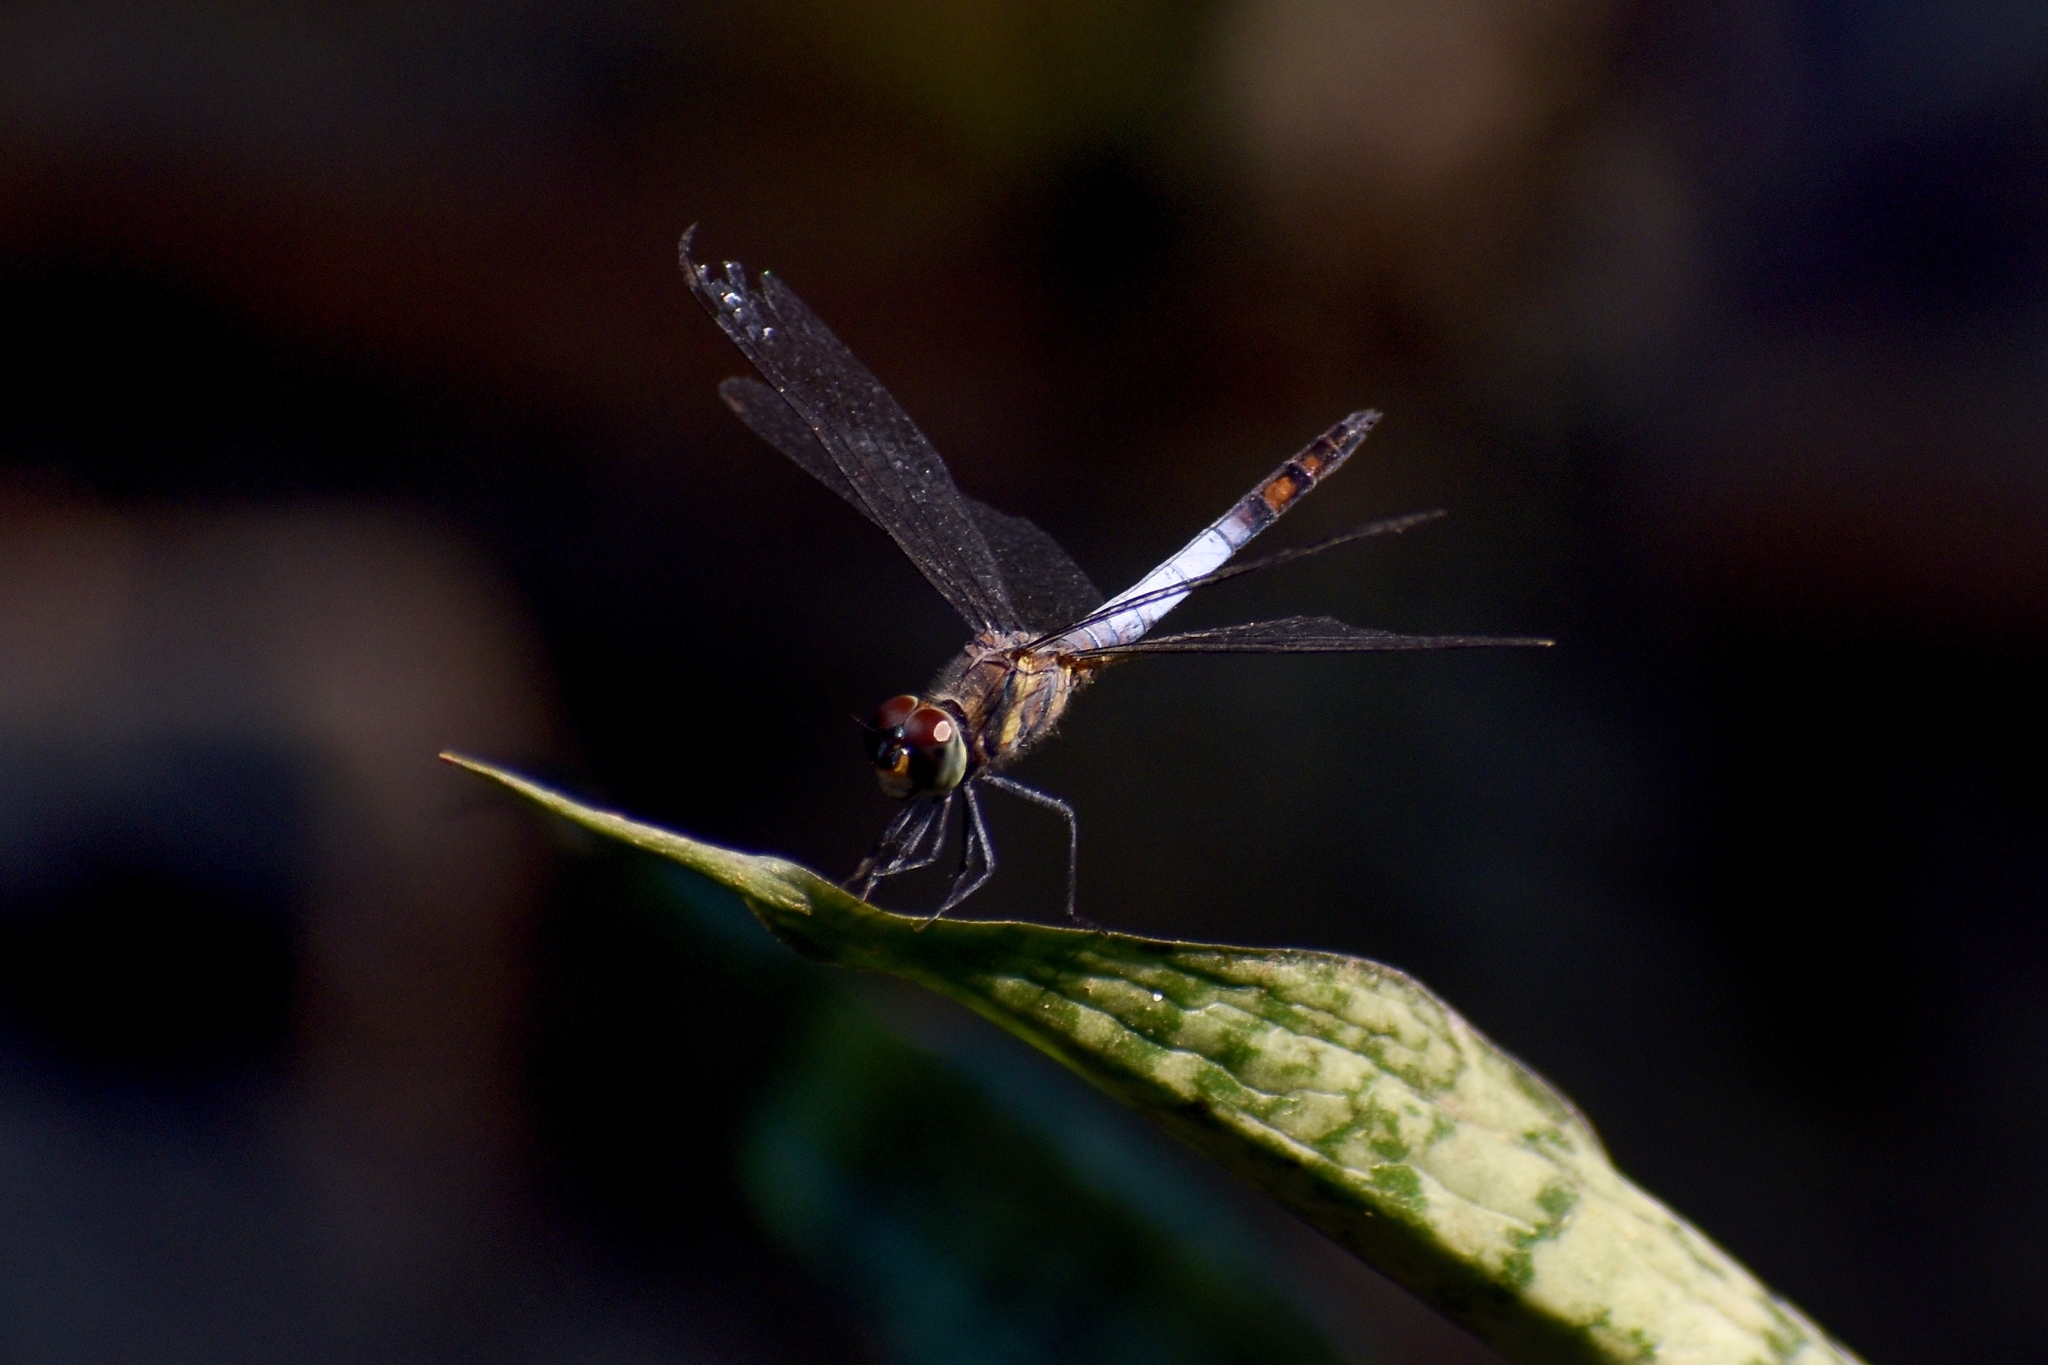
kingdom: Animalia
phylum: Arthropoda
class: Insecta
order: Odonata
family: Libellulidae
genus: Brachydiplax
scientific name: Brachydiplax farinosa
